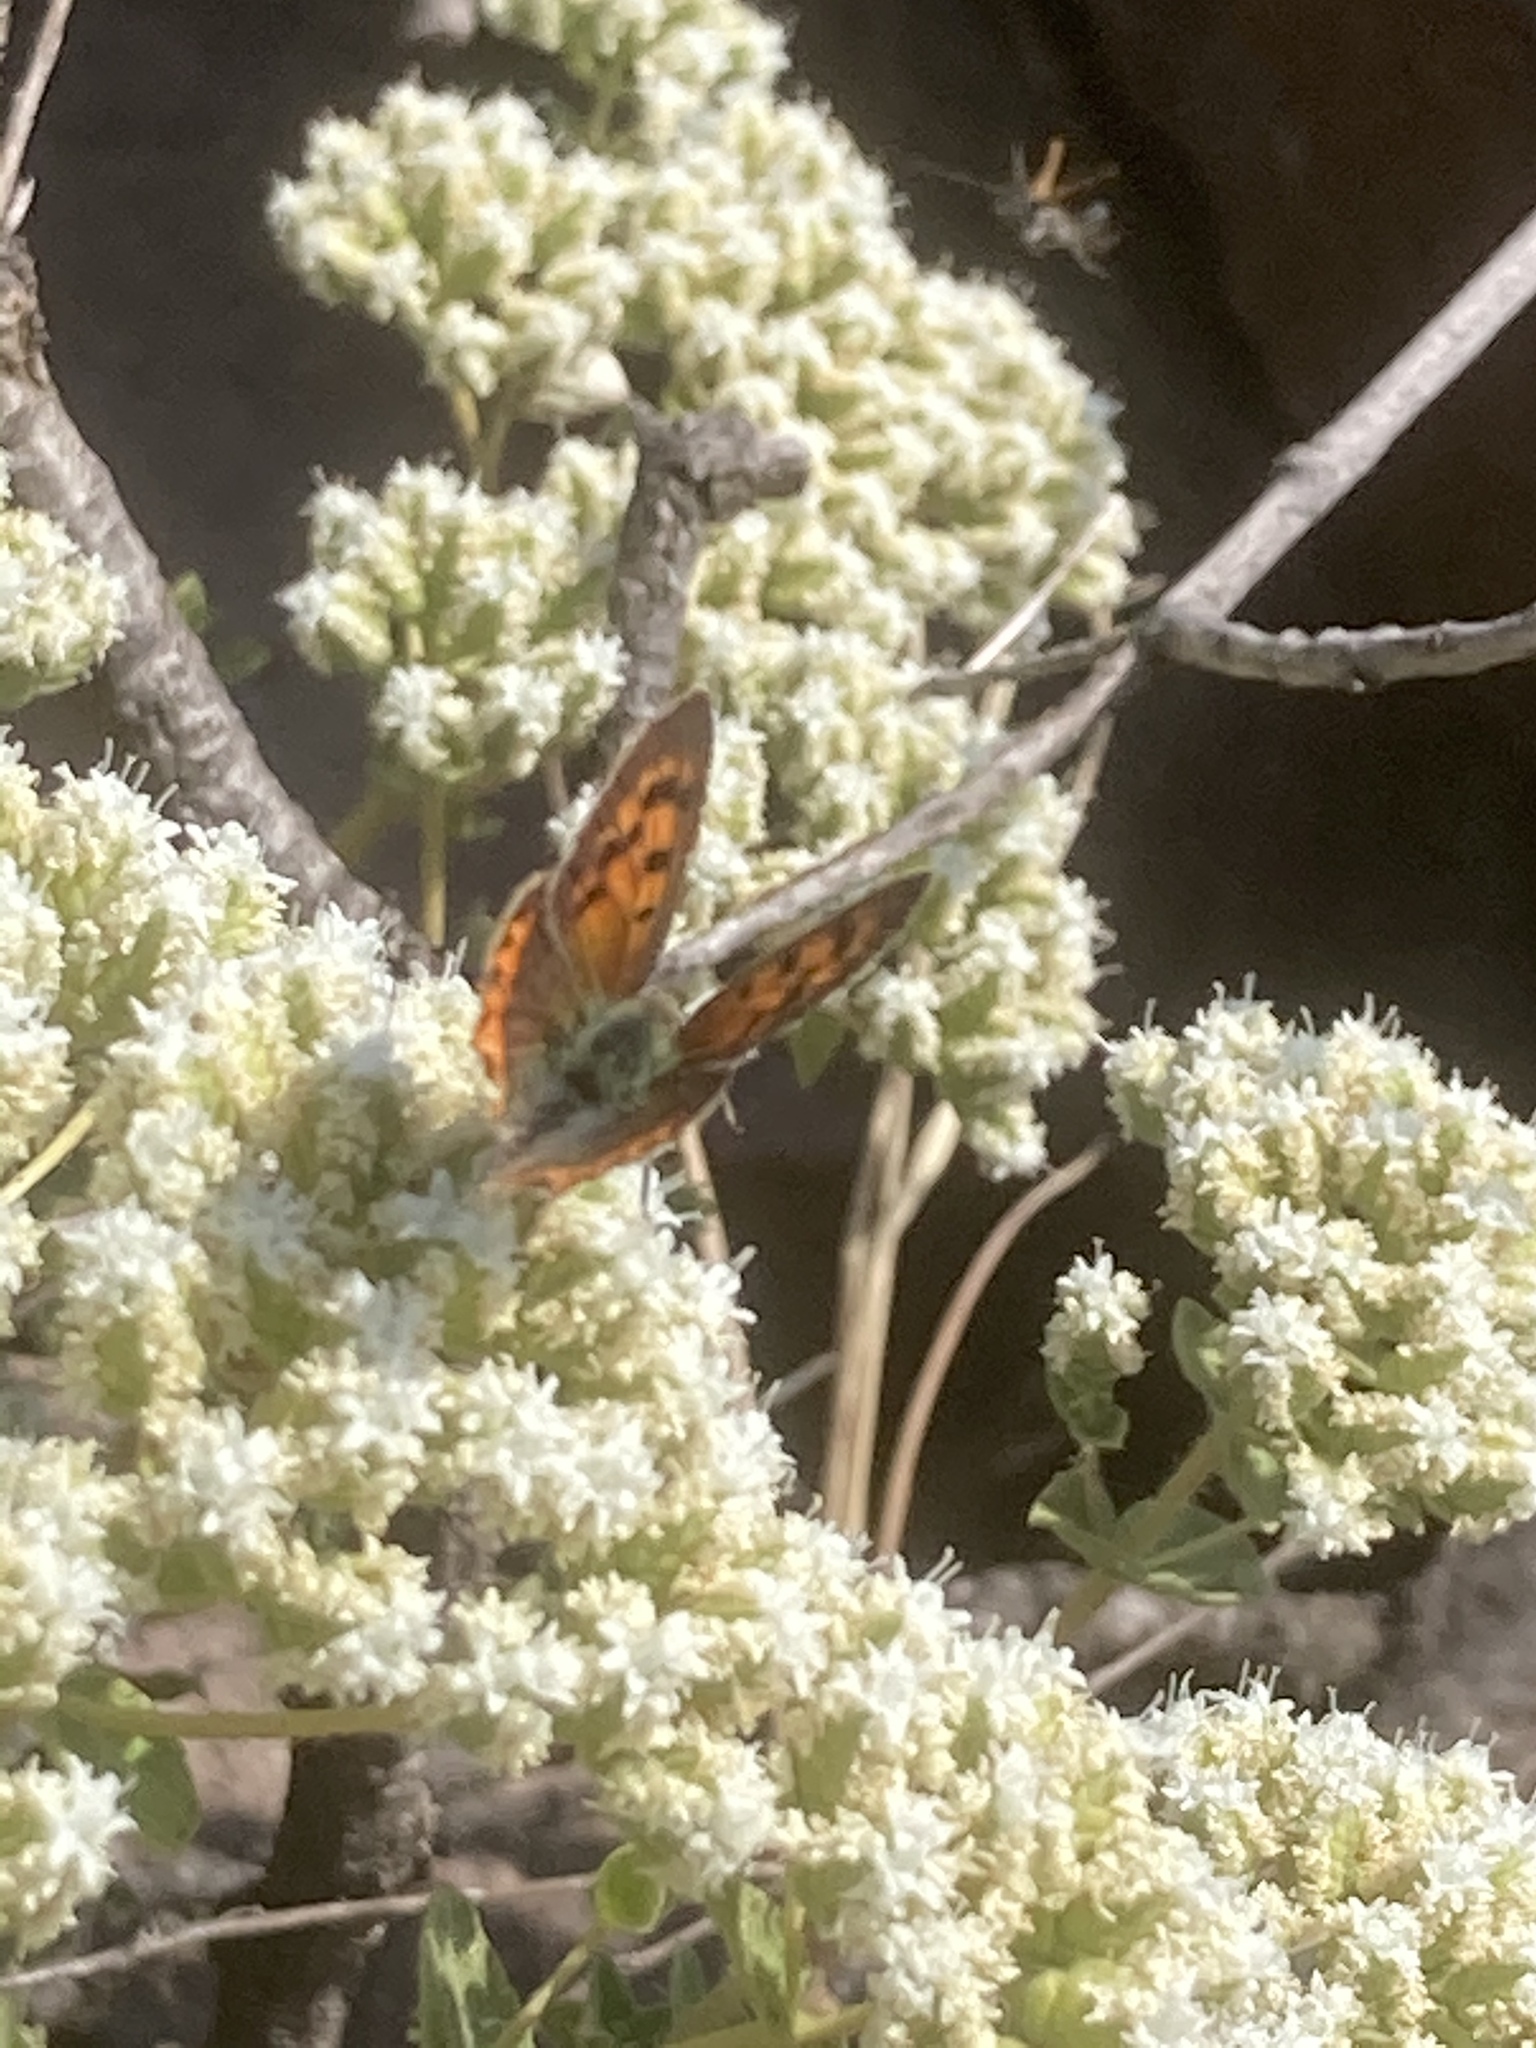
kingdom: Animalia
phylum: Arthropoda
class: Insecta
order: Lepidoptera
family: Lycaenidae
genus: Lycaena
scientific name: Lycaena phlaeas
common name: Small copper
